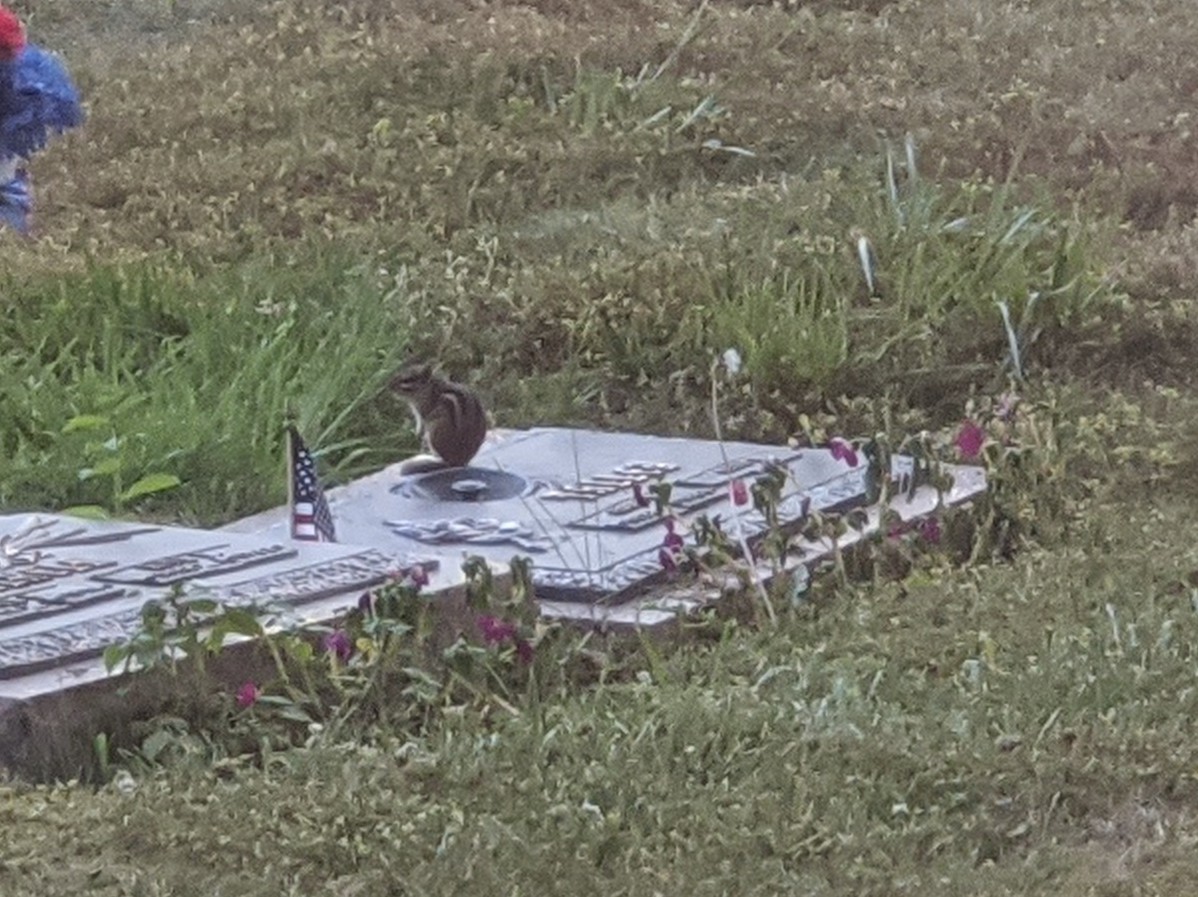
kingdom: Animalia
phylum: Chordata
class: Mammalia
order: Rodentia
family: Sciuridae
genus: Tamias
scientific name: Tamias striatus
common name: Eastern chipmunk
